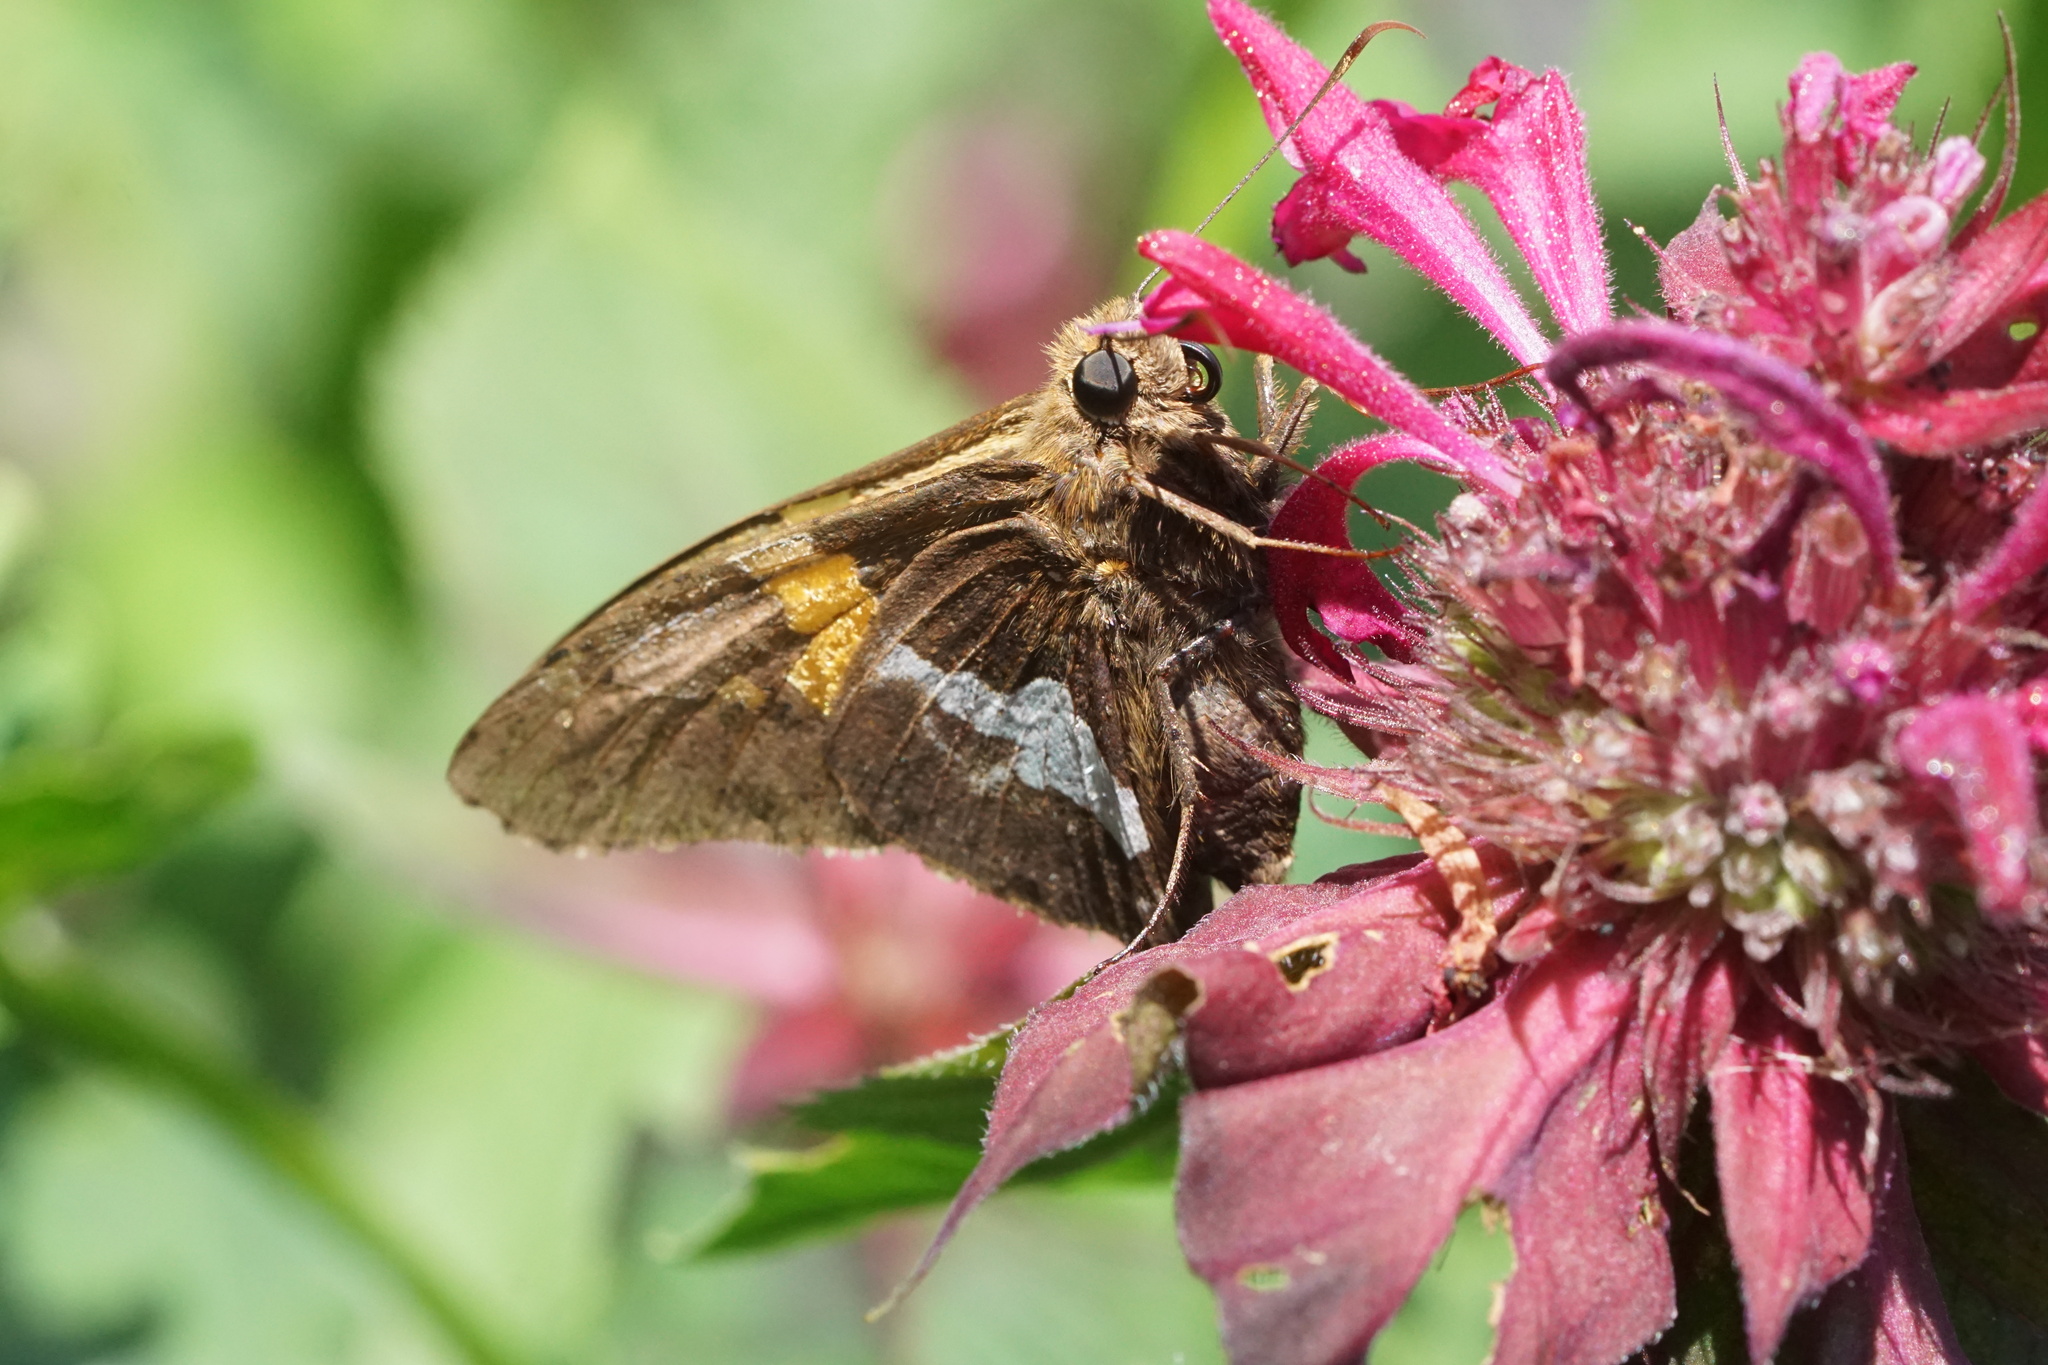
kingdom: Animalia
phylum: Arthropoda
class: Insecta
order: Lepidoptera
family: Hesperiidae
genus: Epargyreus
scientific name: Epargyreus clarus
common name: Silver-spotted skipper
